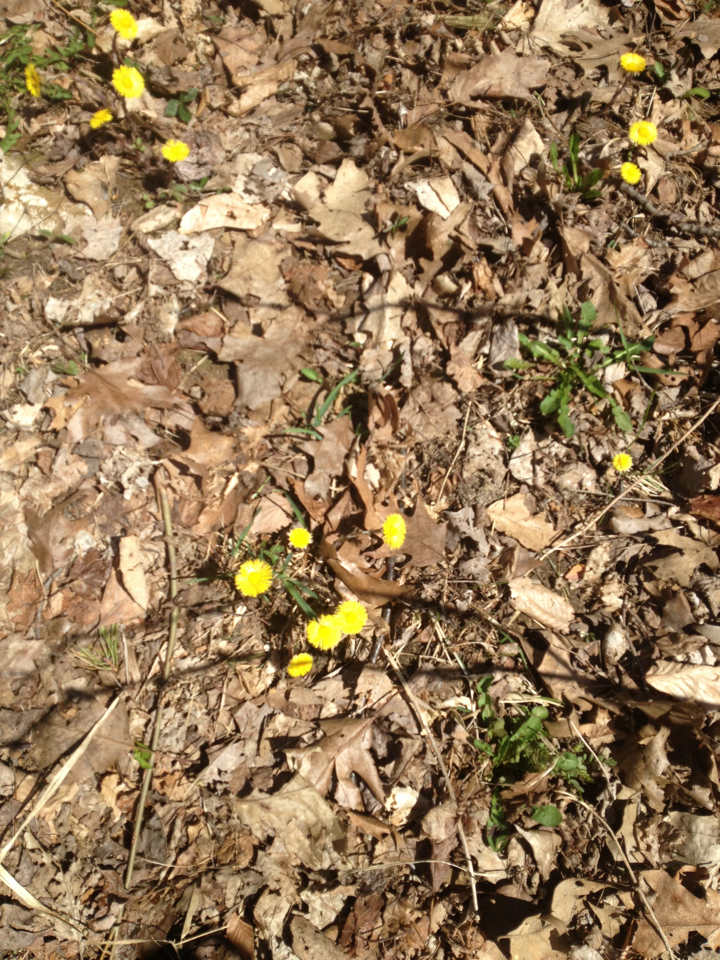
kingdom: Plantae
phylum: Tracheophyta
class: Magnoliopsida
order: Asterales
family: Asteraceae
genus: Tussilago
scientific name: Tussilago farfara
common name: Coltsfoot
